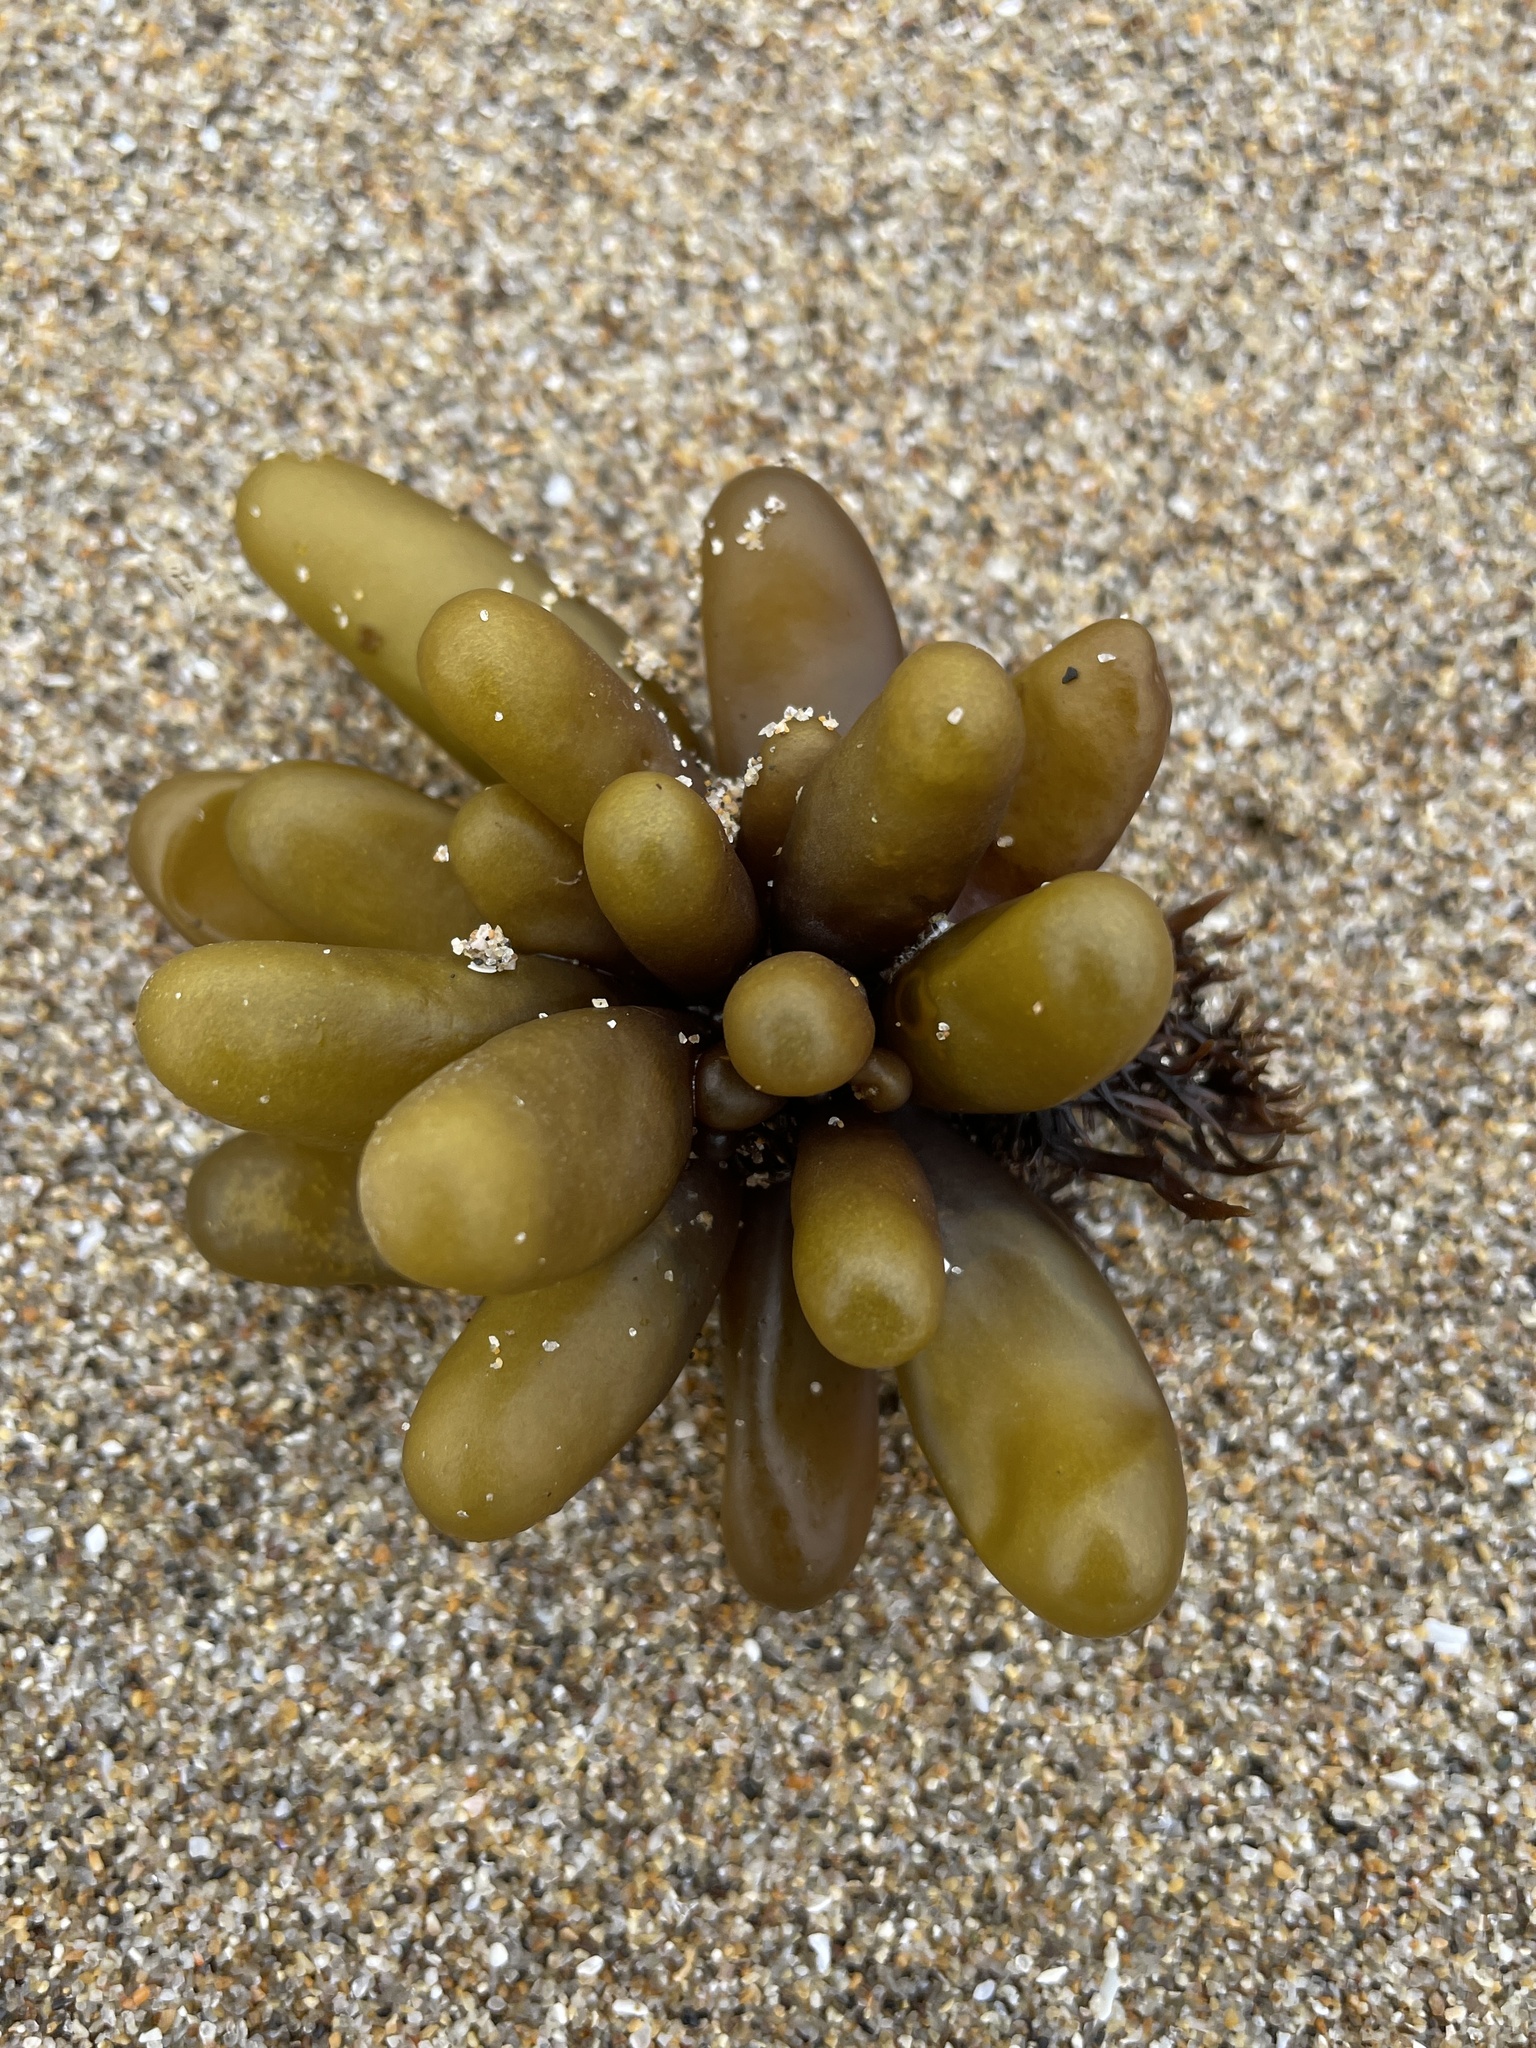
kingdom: Plantae
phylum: Rhodophyta
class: Florideophyceae
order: Palmariales
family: Palmariaceae
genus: Halosaccion
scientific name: Halosaccion glandiforme
